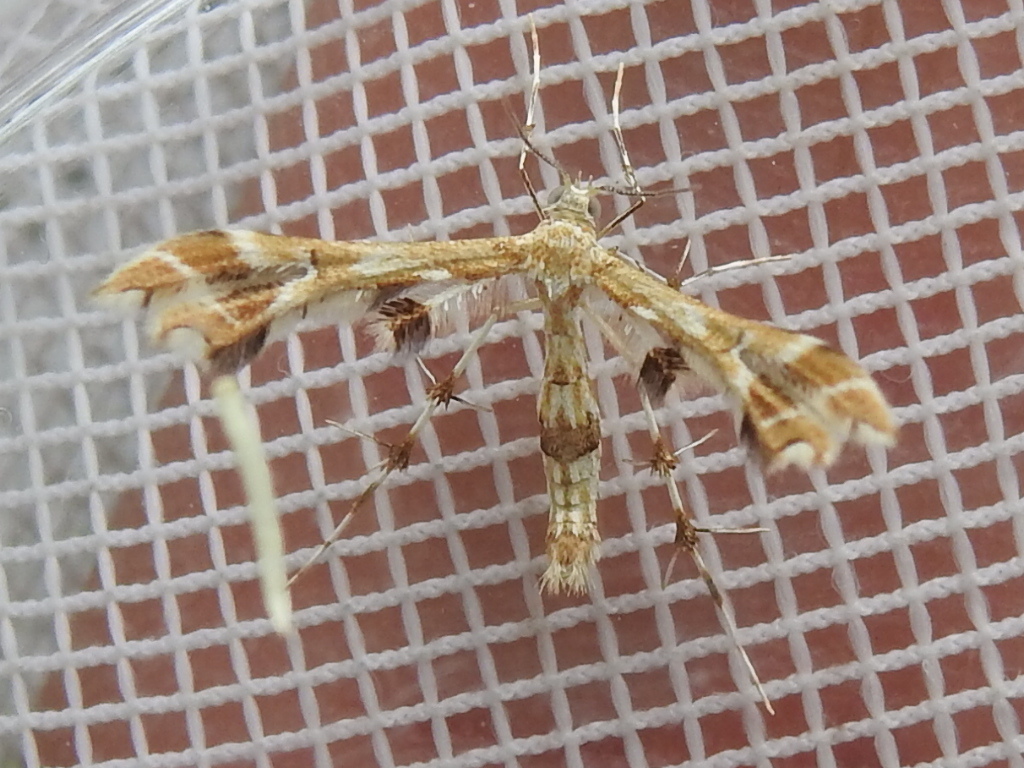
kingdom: Animalia
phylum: Arthropoda
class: Insecta
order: Lepidoptera
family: Pterophoridae
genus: Geina
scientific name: Geina periscelidactylus
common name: Grape plume moth
